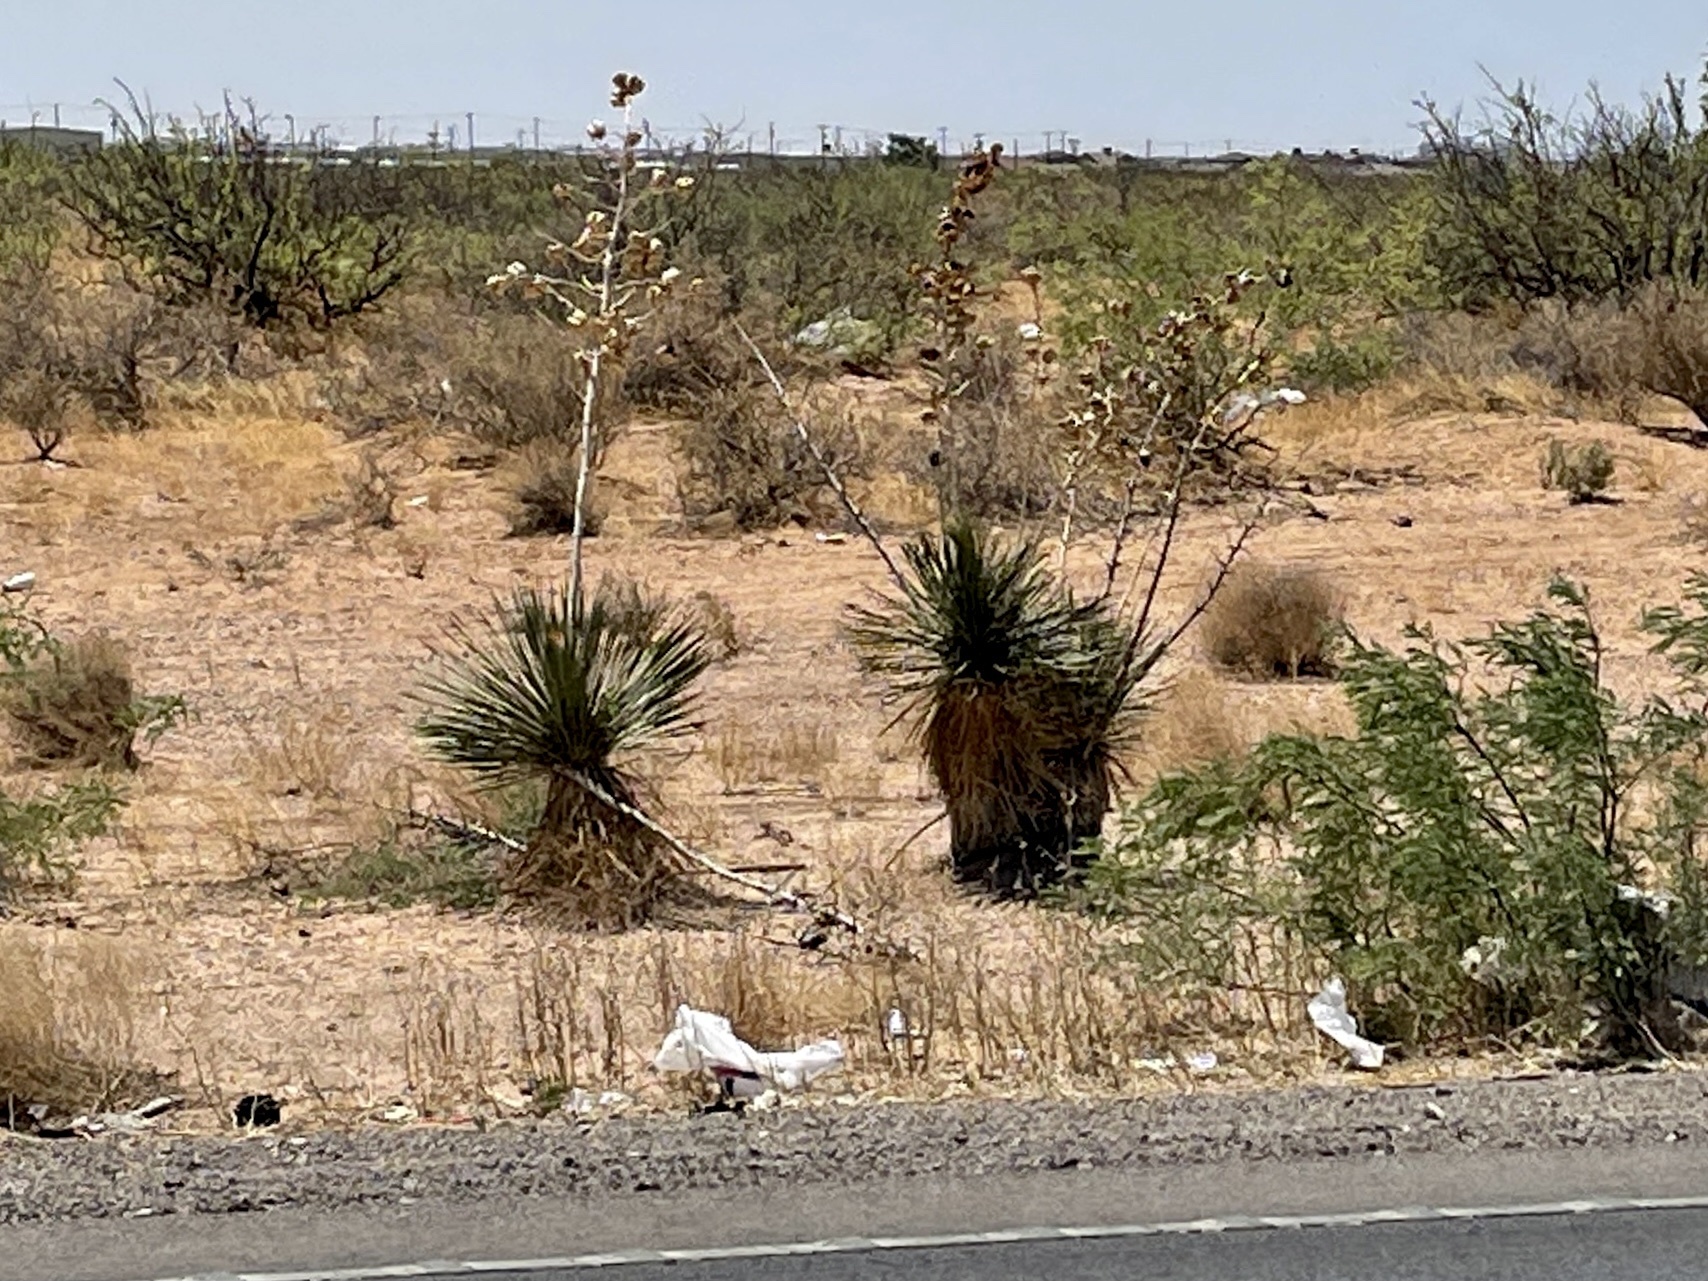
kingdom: Plantae
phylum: Tracheophyta
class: Liliopsida
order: Asparagales
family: Asparagaceae
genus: Yucca
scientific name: Yucca elata
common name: Palmella
